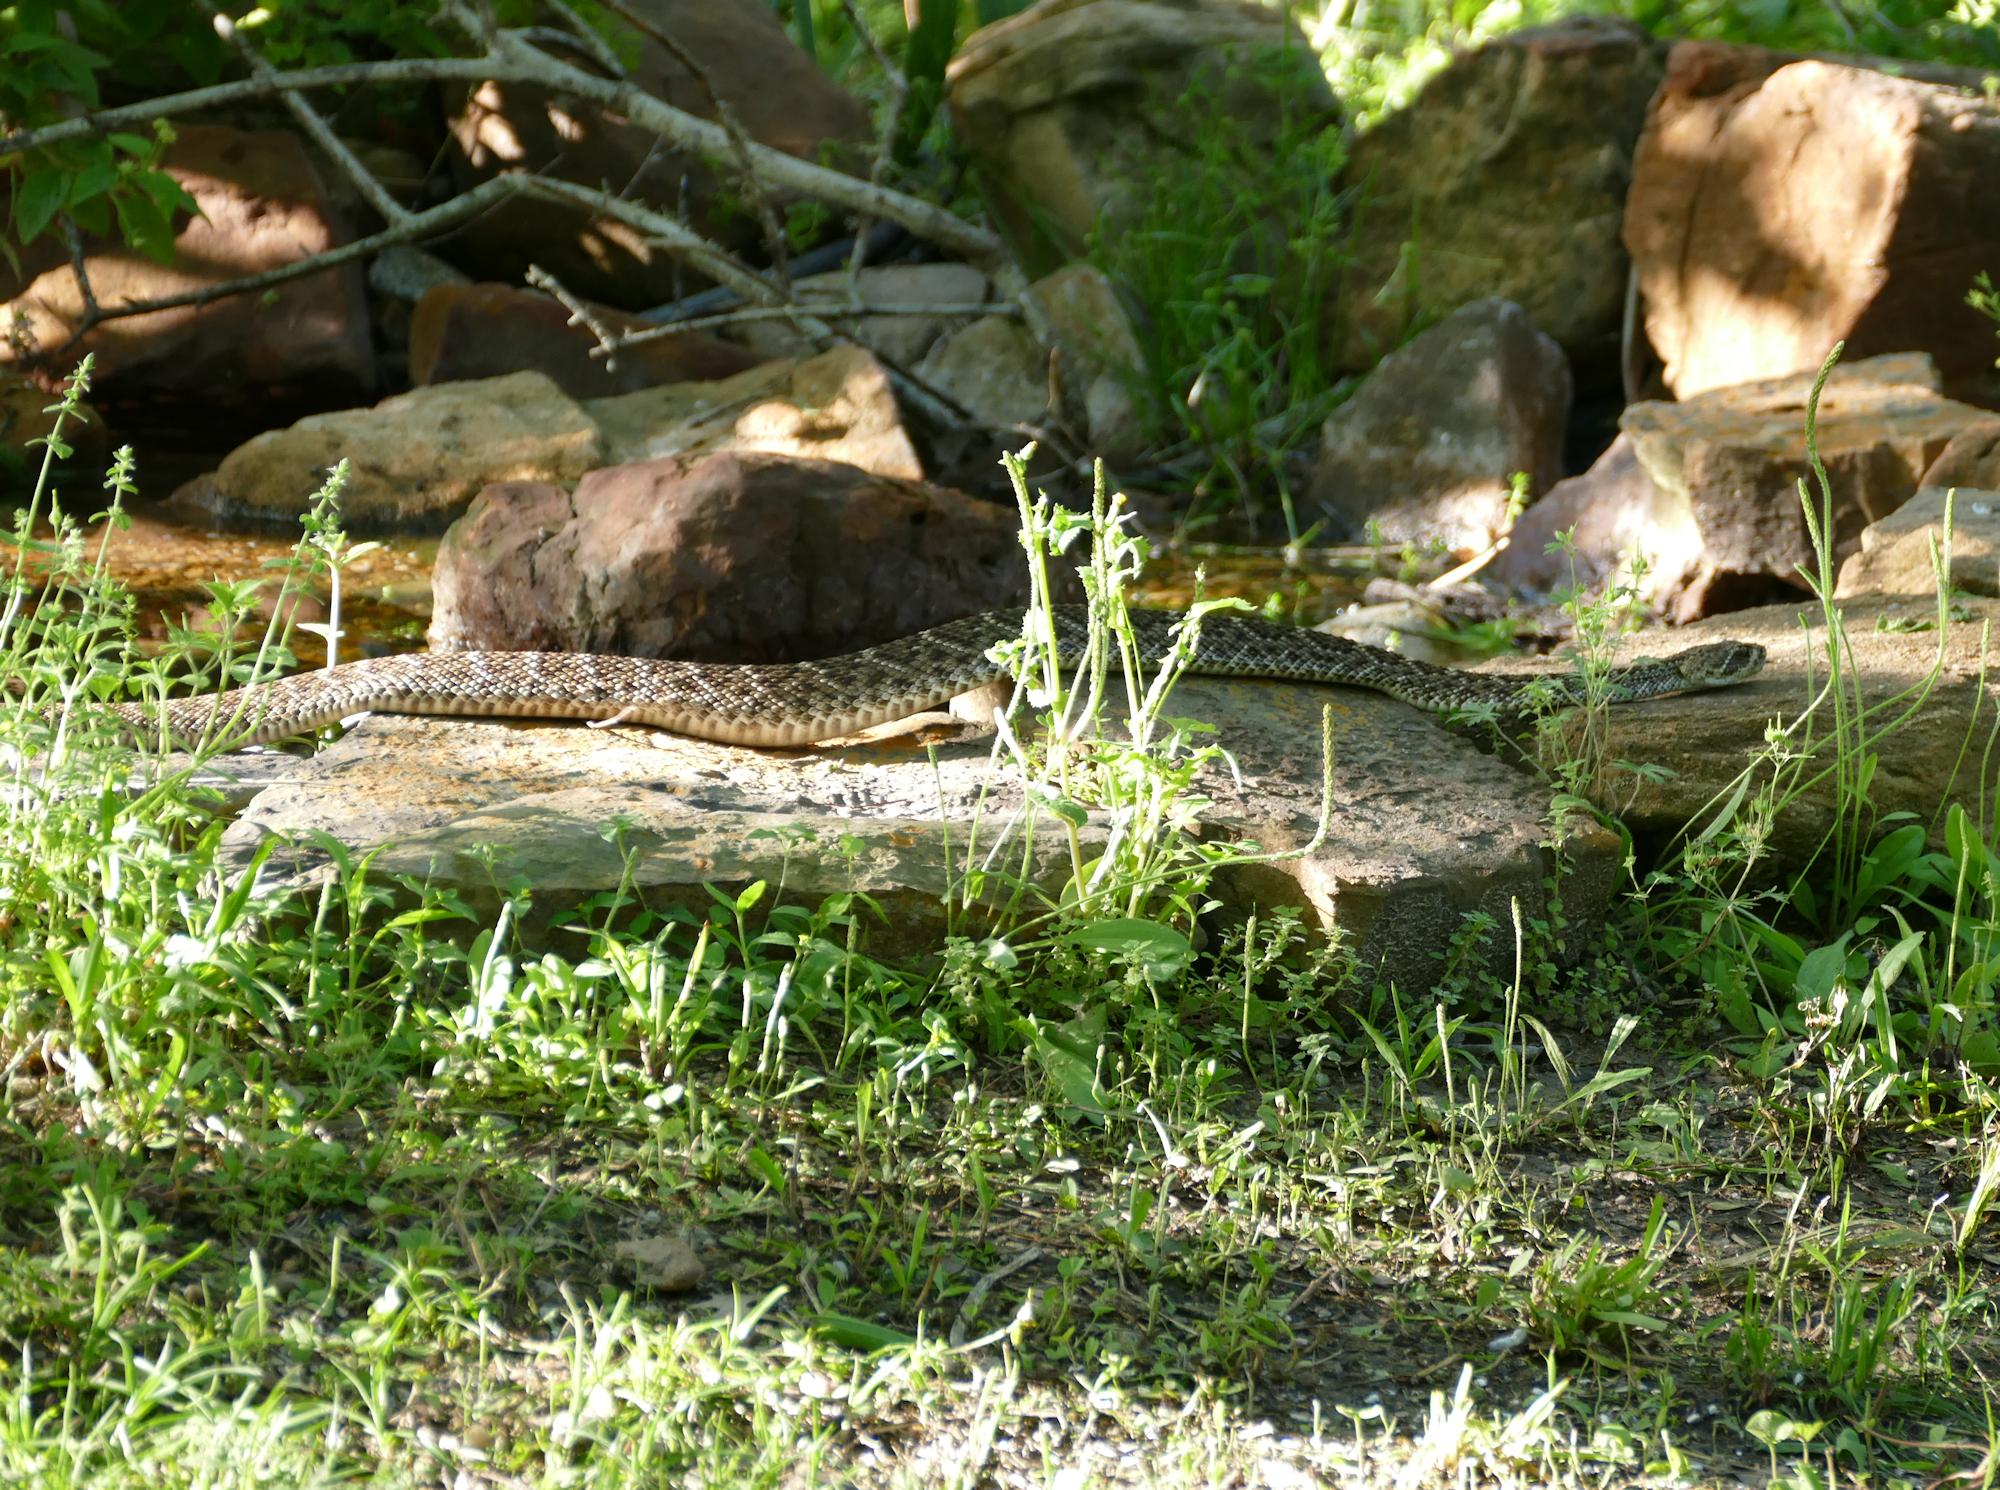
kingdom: Animalia
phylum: Chordata
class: Squamata
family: Viperidae
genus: Crotalus
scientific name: Crotalus atrox
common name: Western diamond-backed rattlesnake
